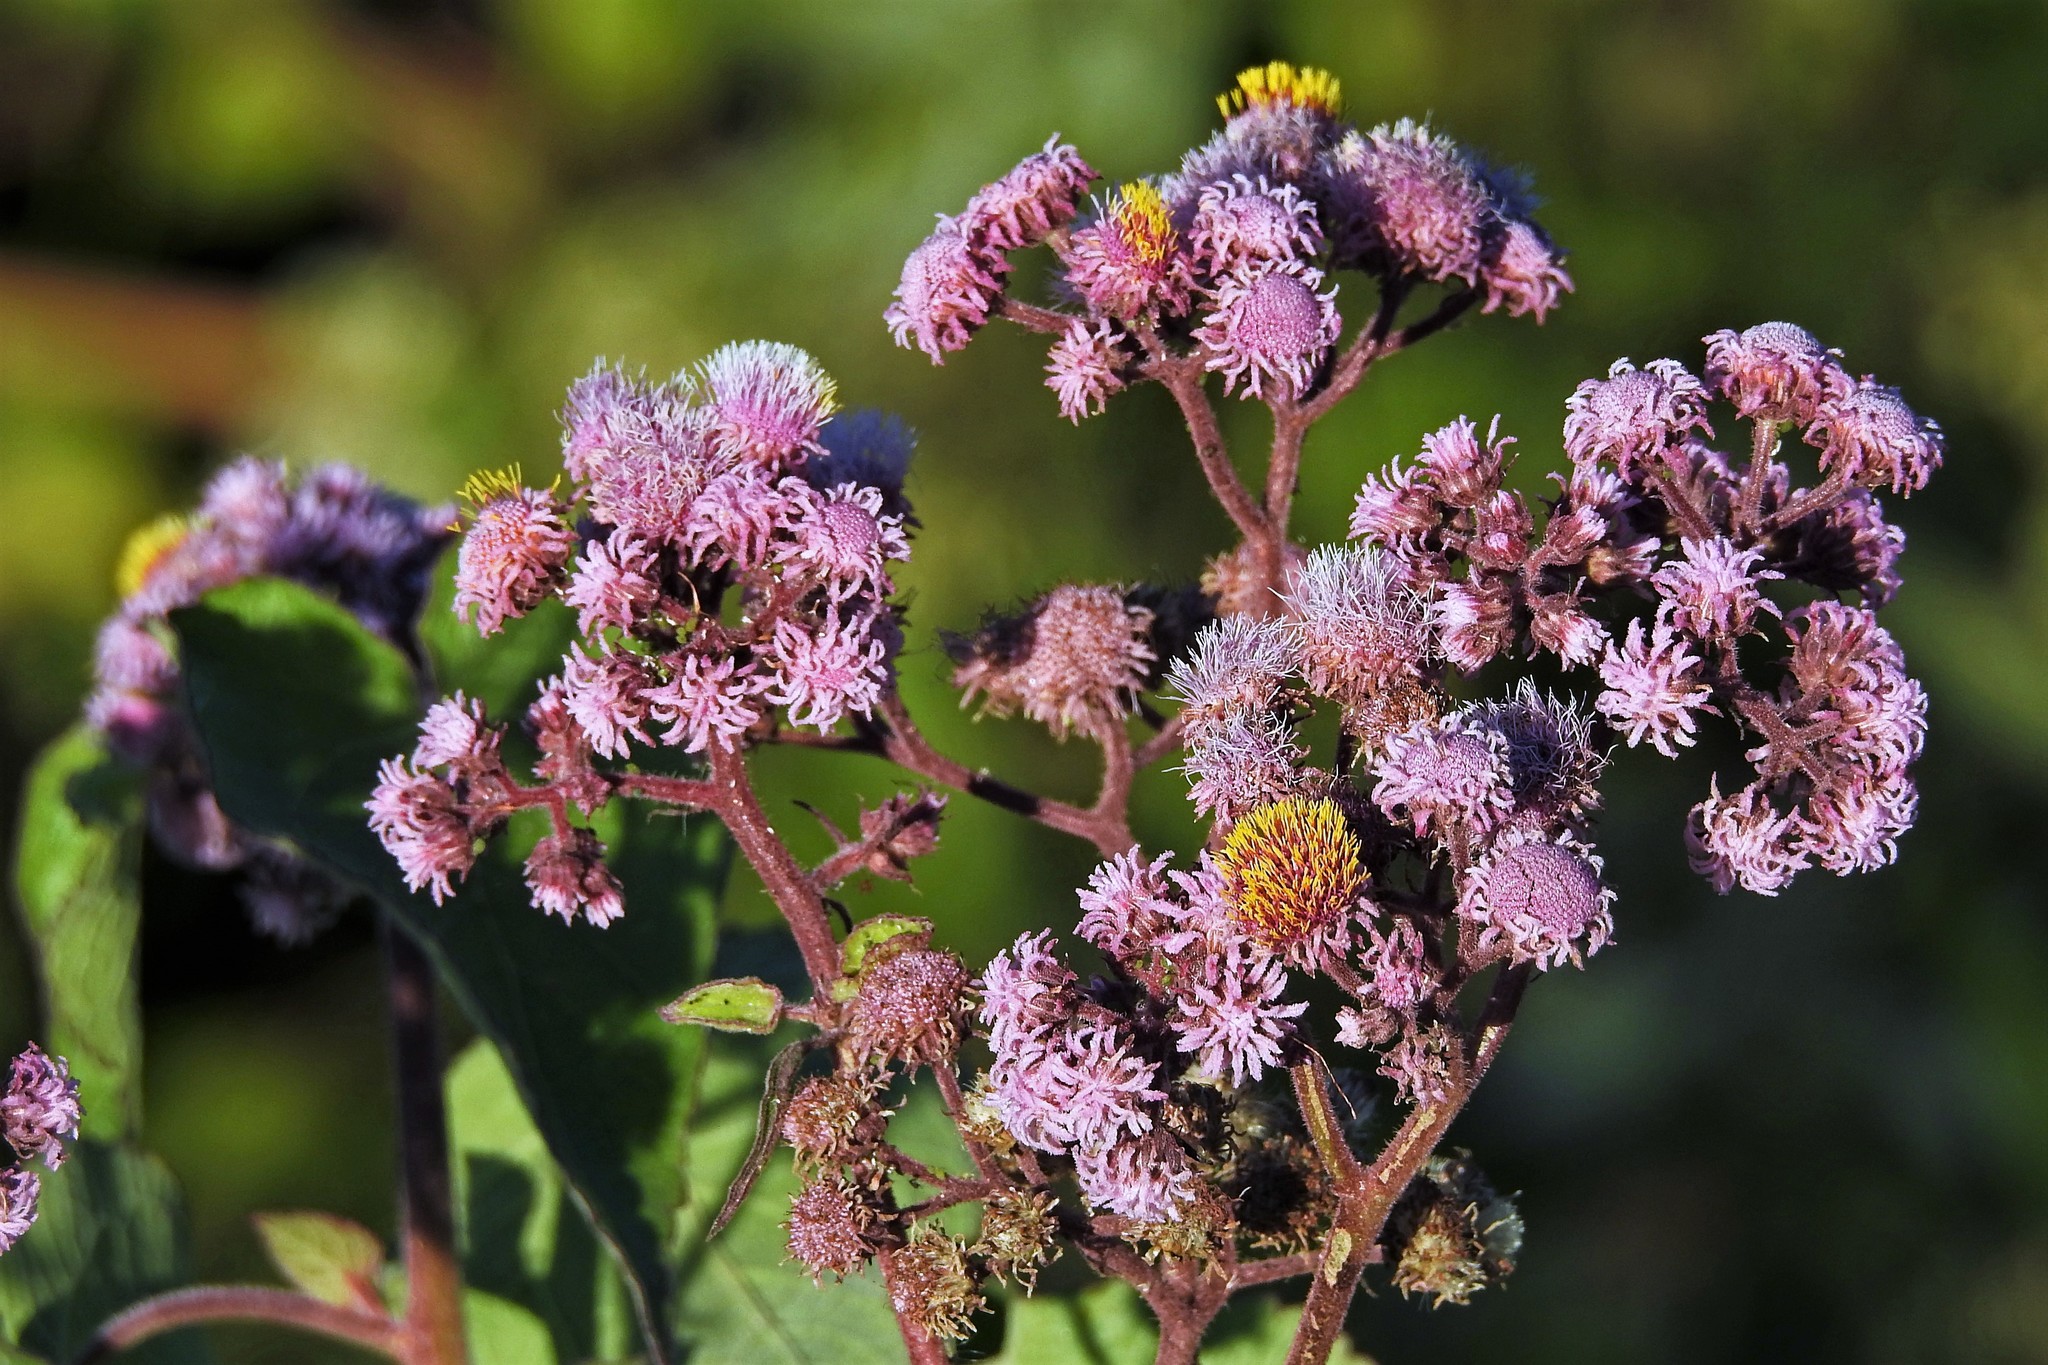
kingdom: Plantae
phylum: Tracheophyta
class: Magnoliopsida
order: Asterales
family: Asteraceae
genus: Urolepis
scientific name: Urolepis hecatantha
